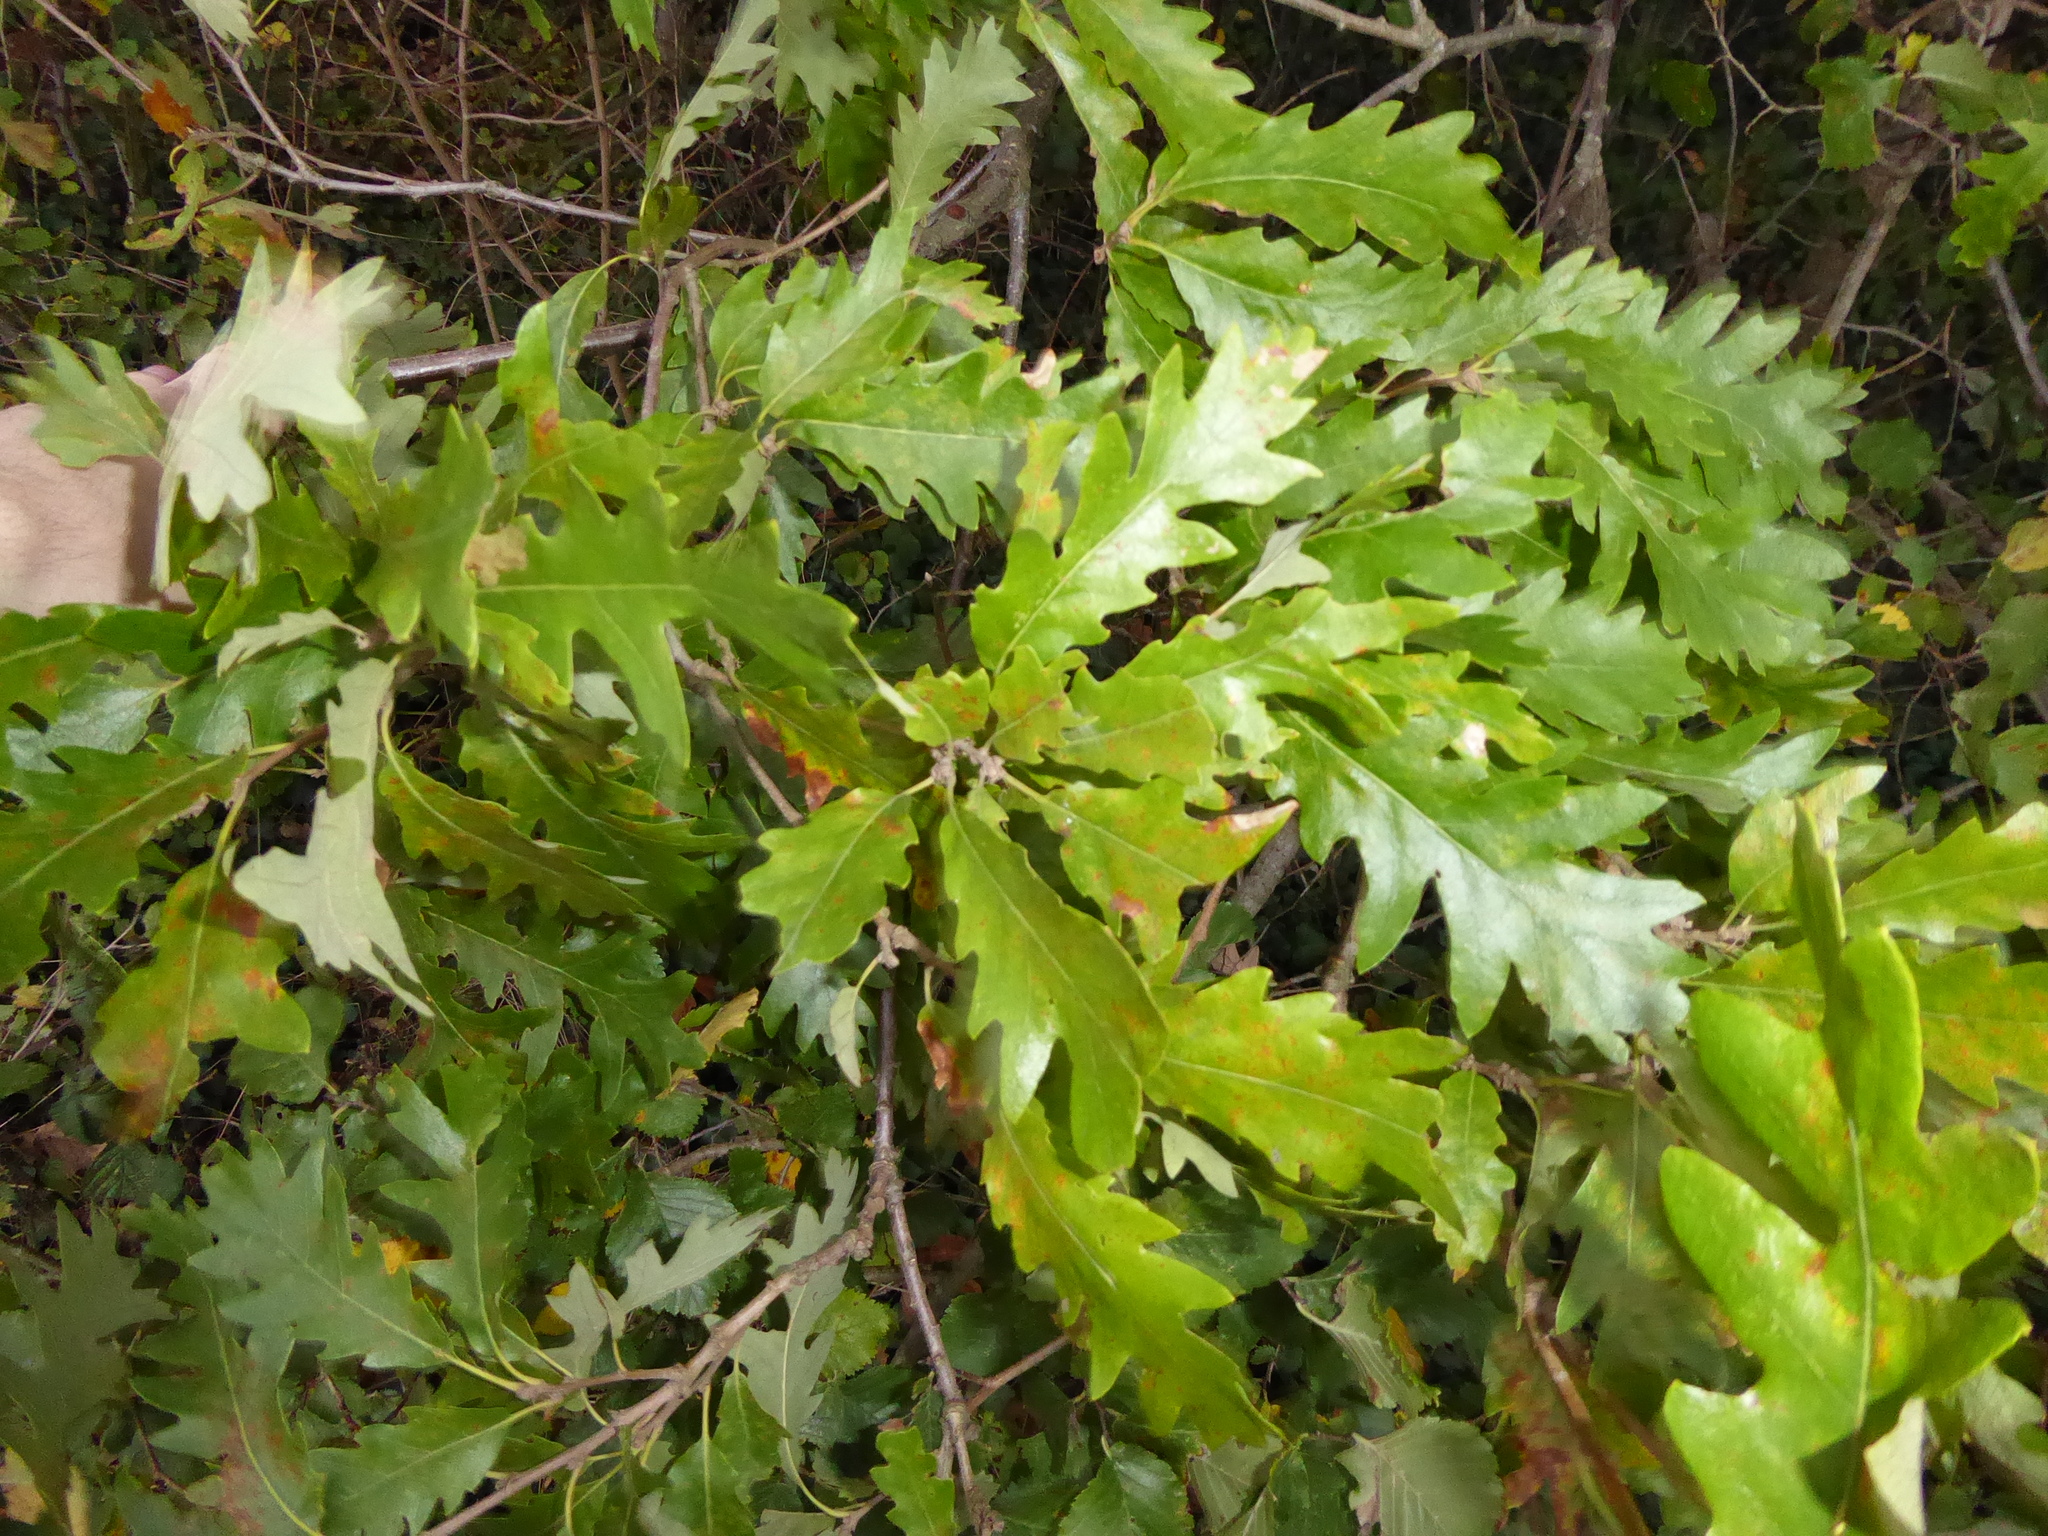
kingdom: Plantae
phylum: Tracheophyta
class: Magnoliopsida
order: Fagales
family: Fagaceae
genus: Quercus
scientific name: Quercus cerris
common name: Turkey oak
